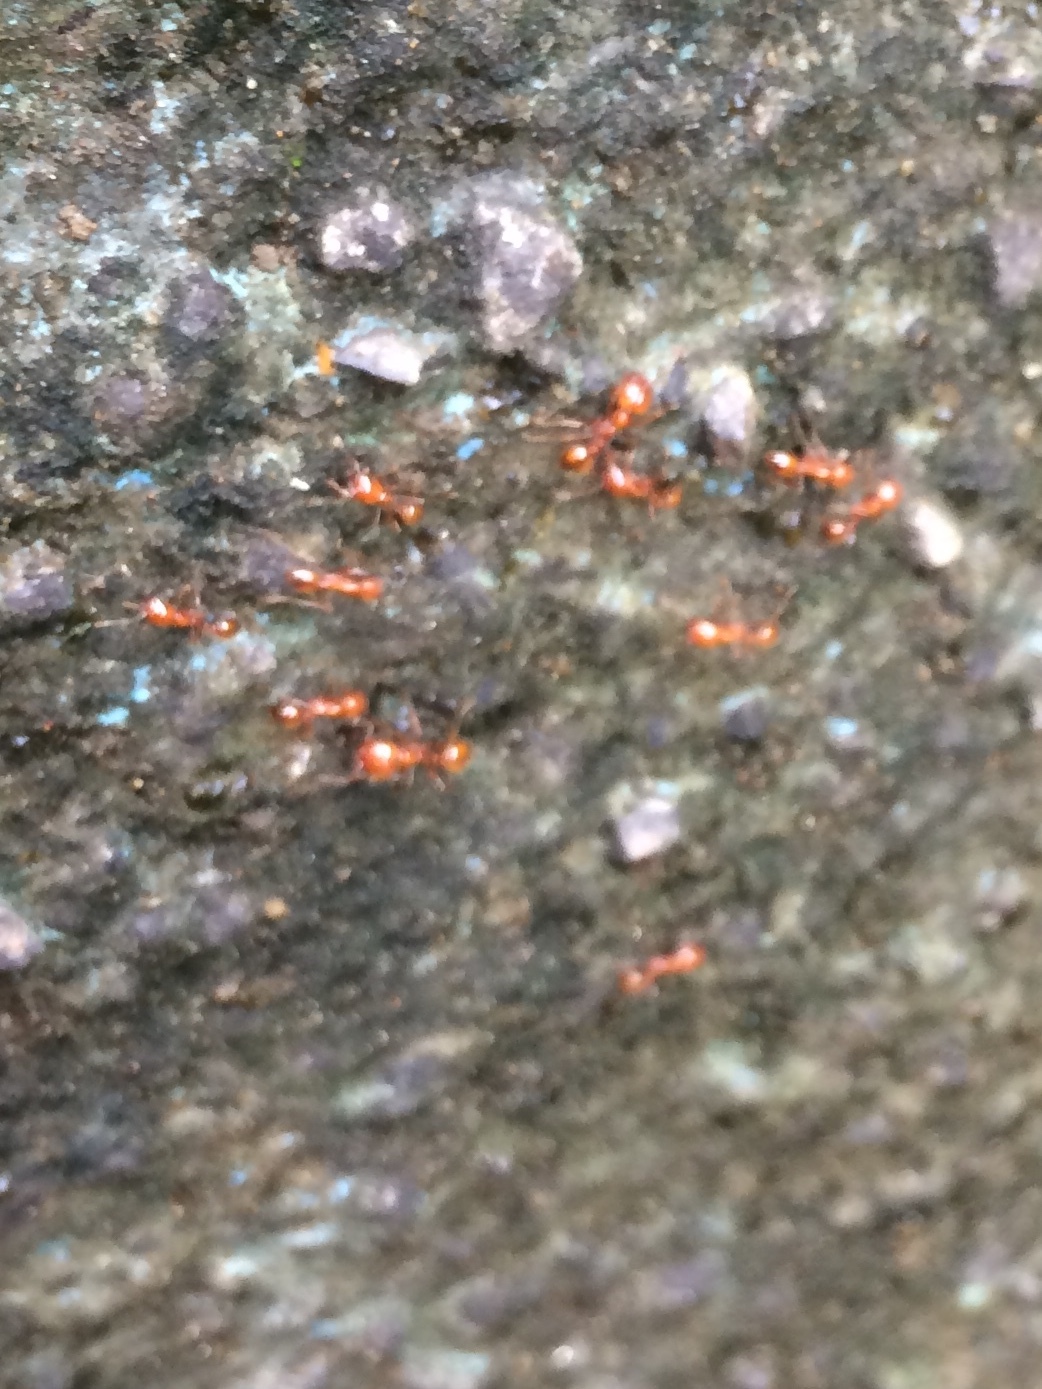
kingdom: Animalia
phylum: Arthropoda
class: Insecta
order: Hymenoptera
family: Formicidae
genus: Solenopsis
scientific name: Solenopsis geminata
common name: Tropical fire ant
